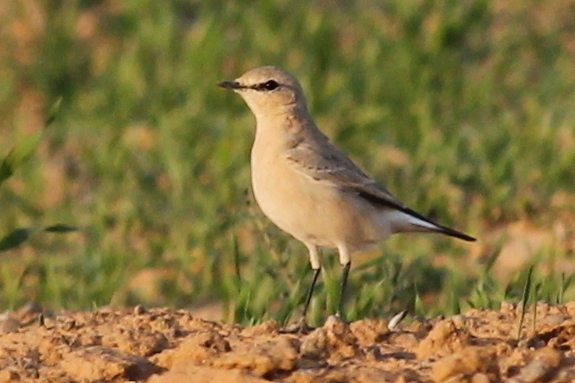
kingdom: Animalia
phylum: Chordata
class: Aves
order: Passeriformes
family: Muscicapidae
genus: Oenanthe
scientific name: Oenanthe isabellina
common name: Isabelline wheatear
